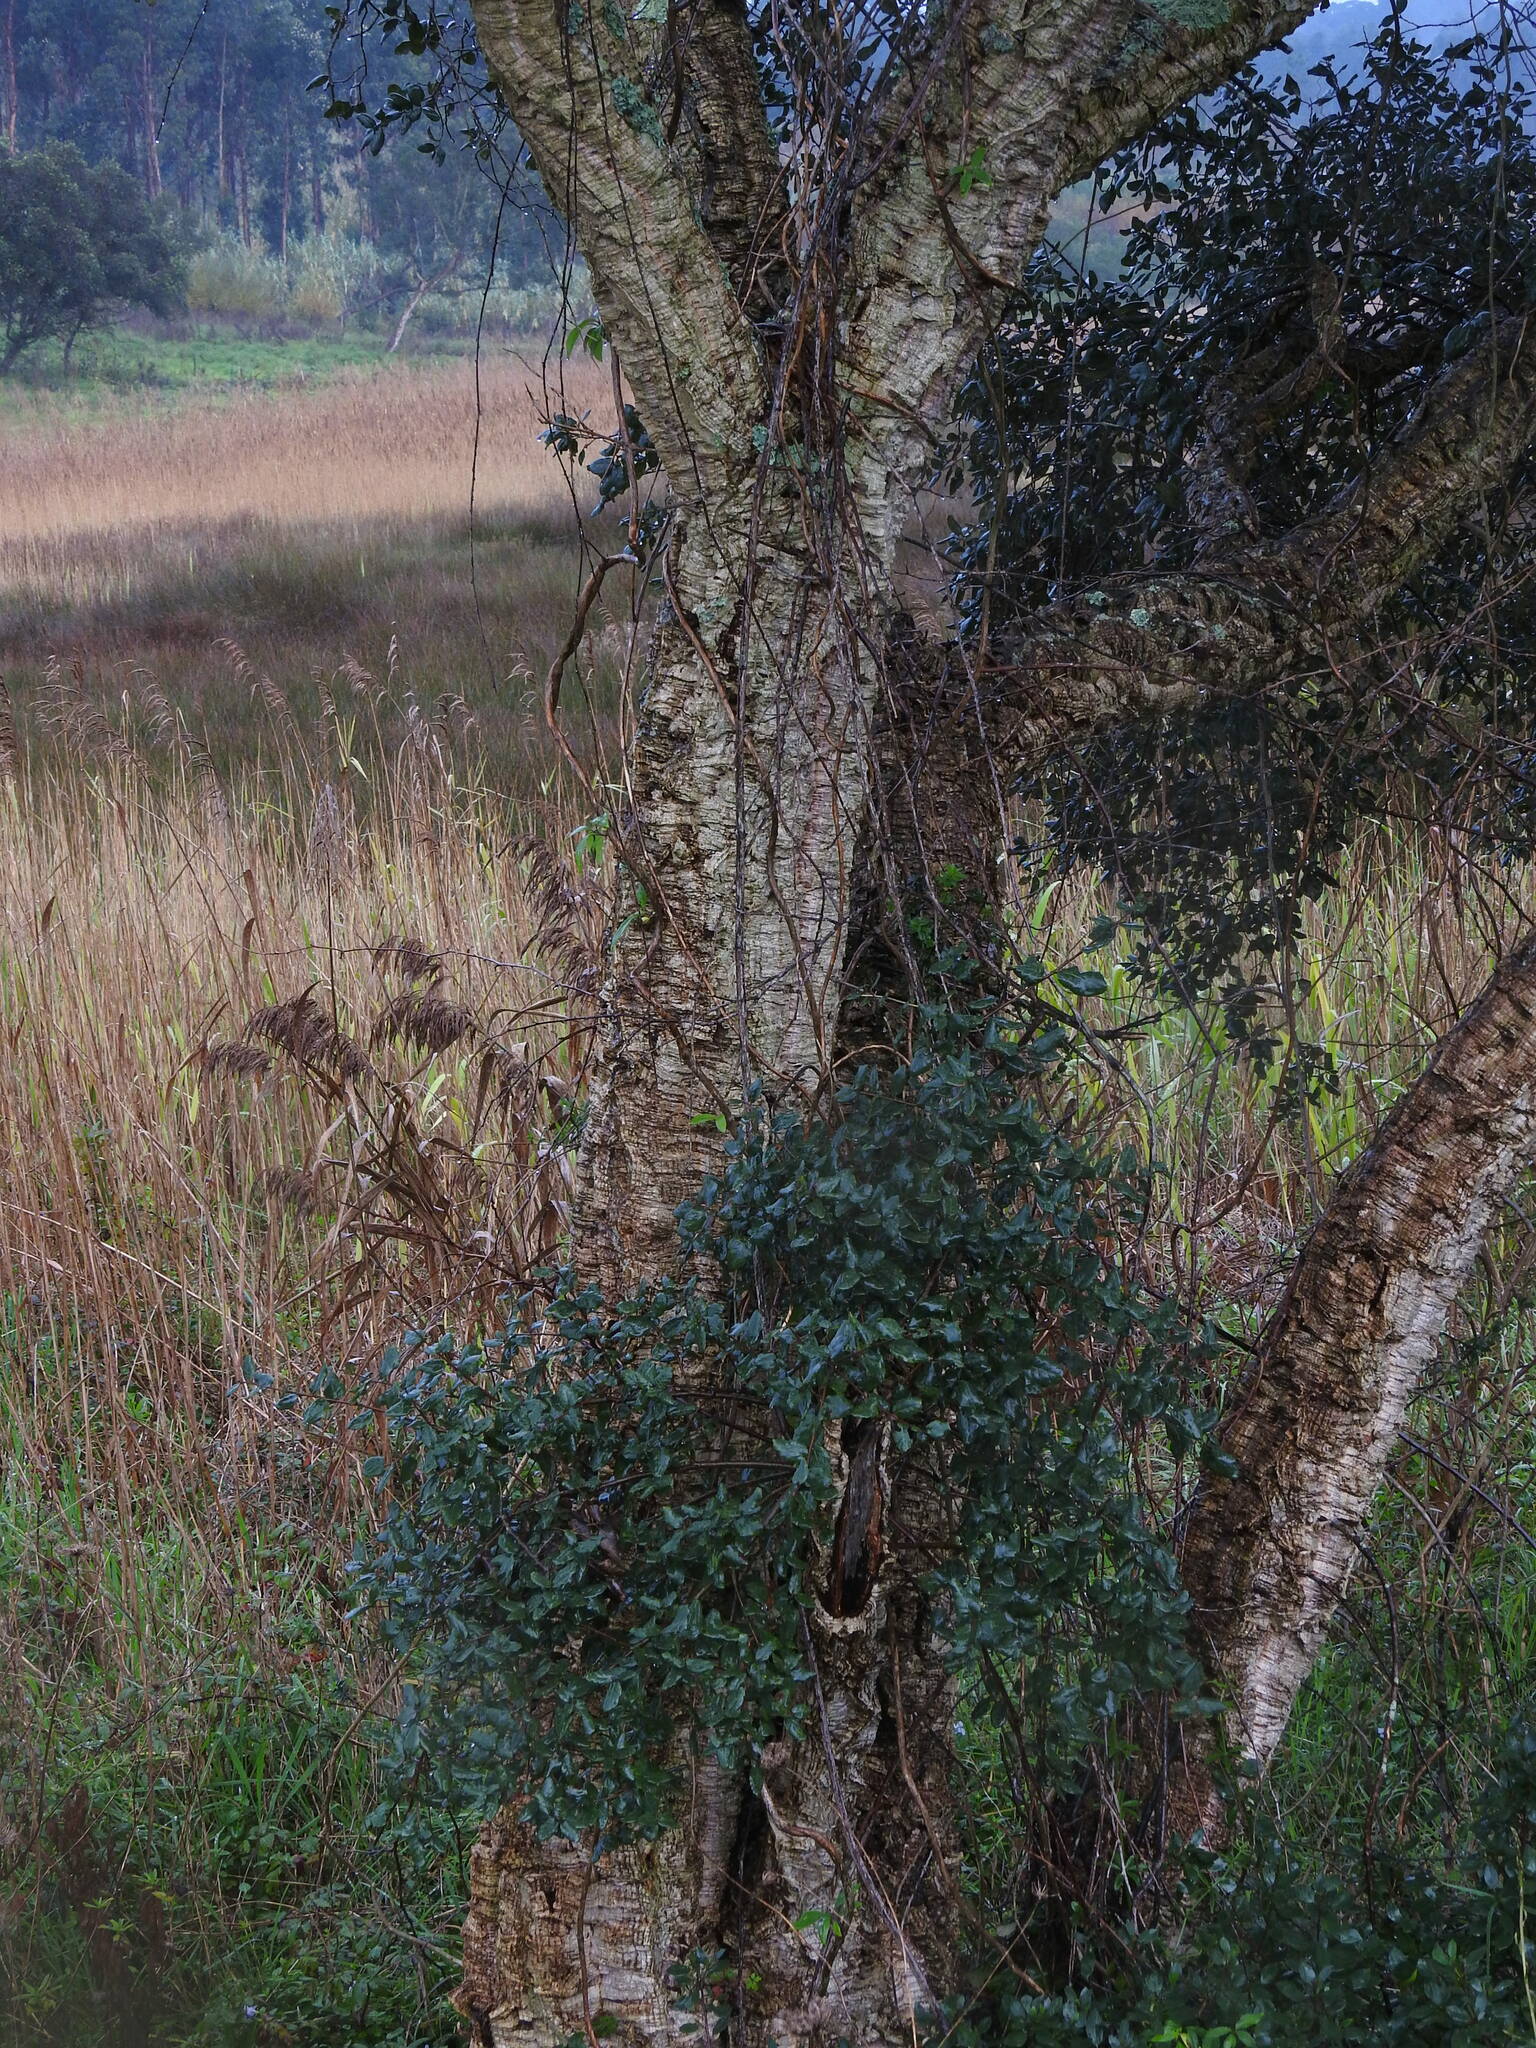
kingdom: Plantae
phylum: Tracheophyta
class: Magnoliopsida
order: Fagales
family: Fagaceae
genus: Quercus
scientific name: Quercus suber
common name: Cork oak
